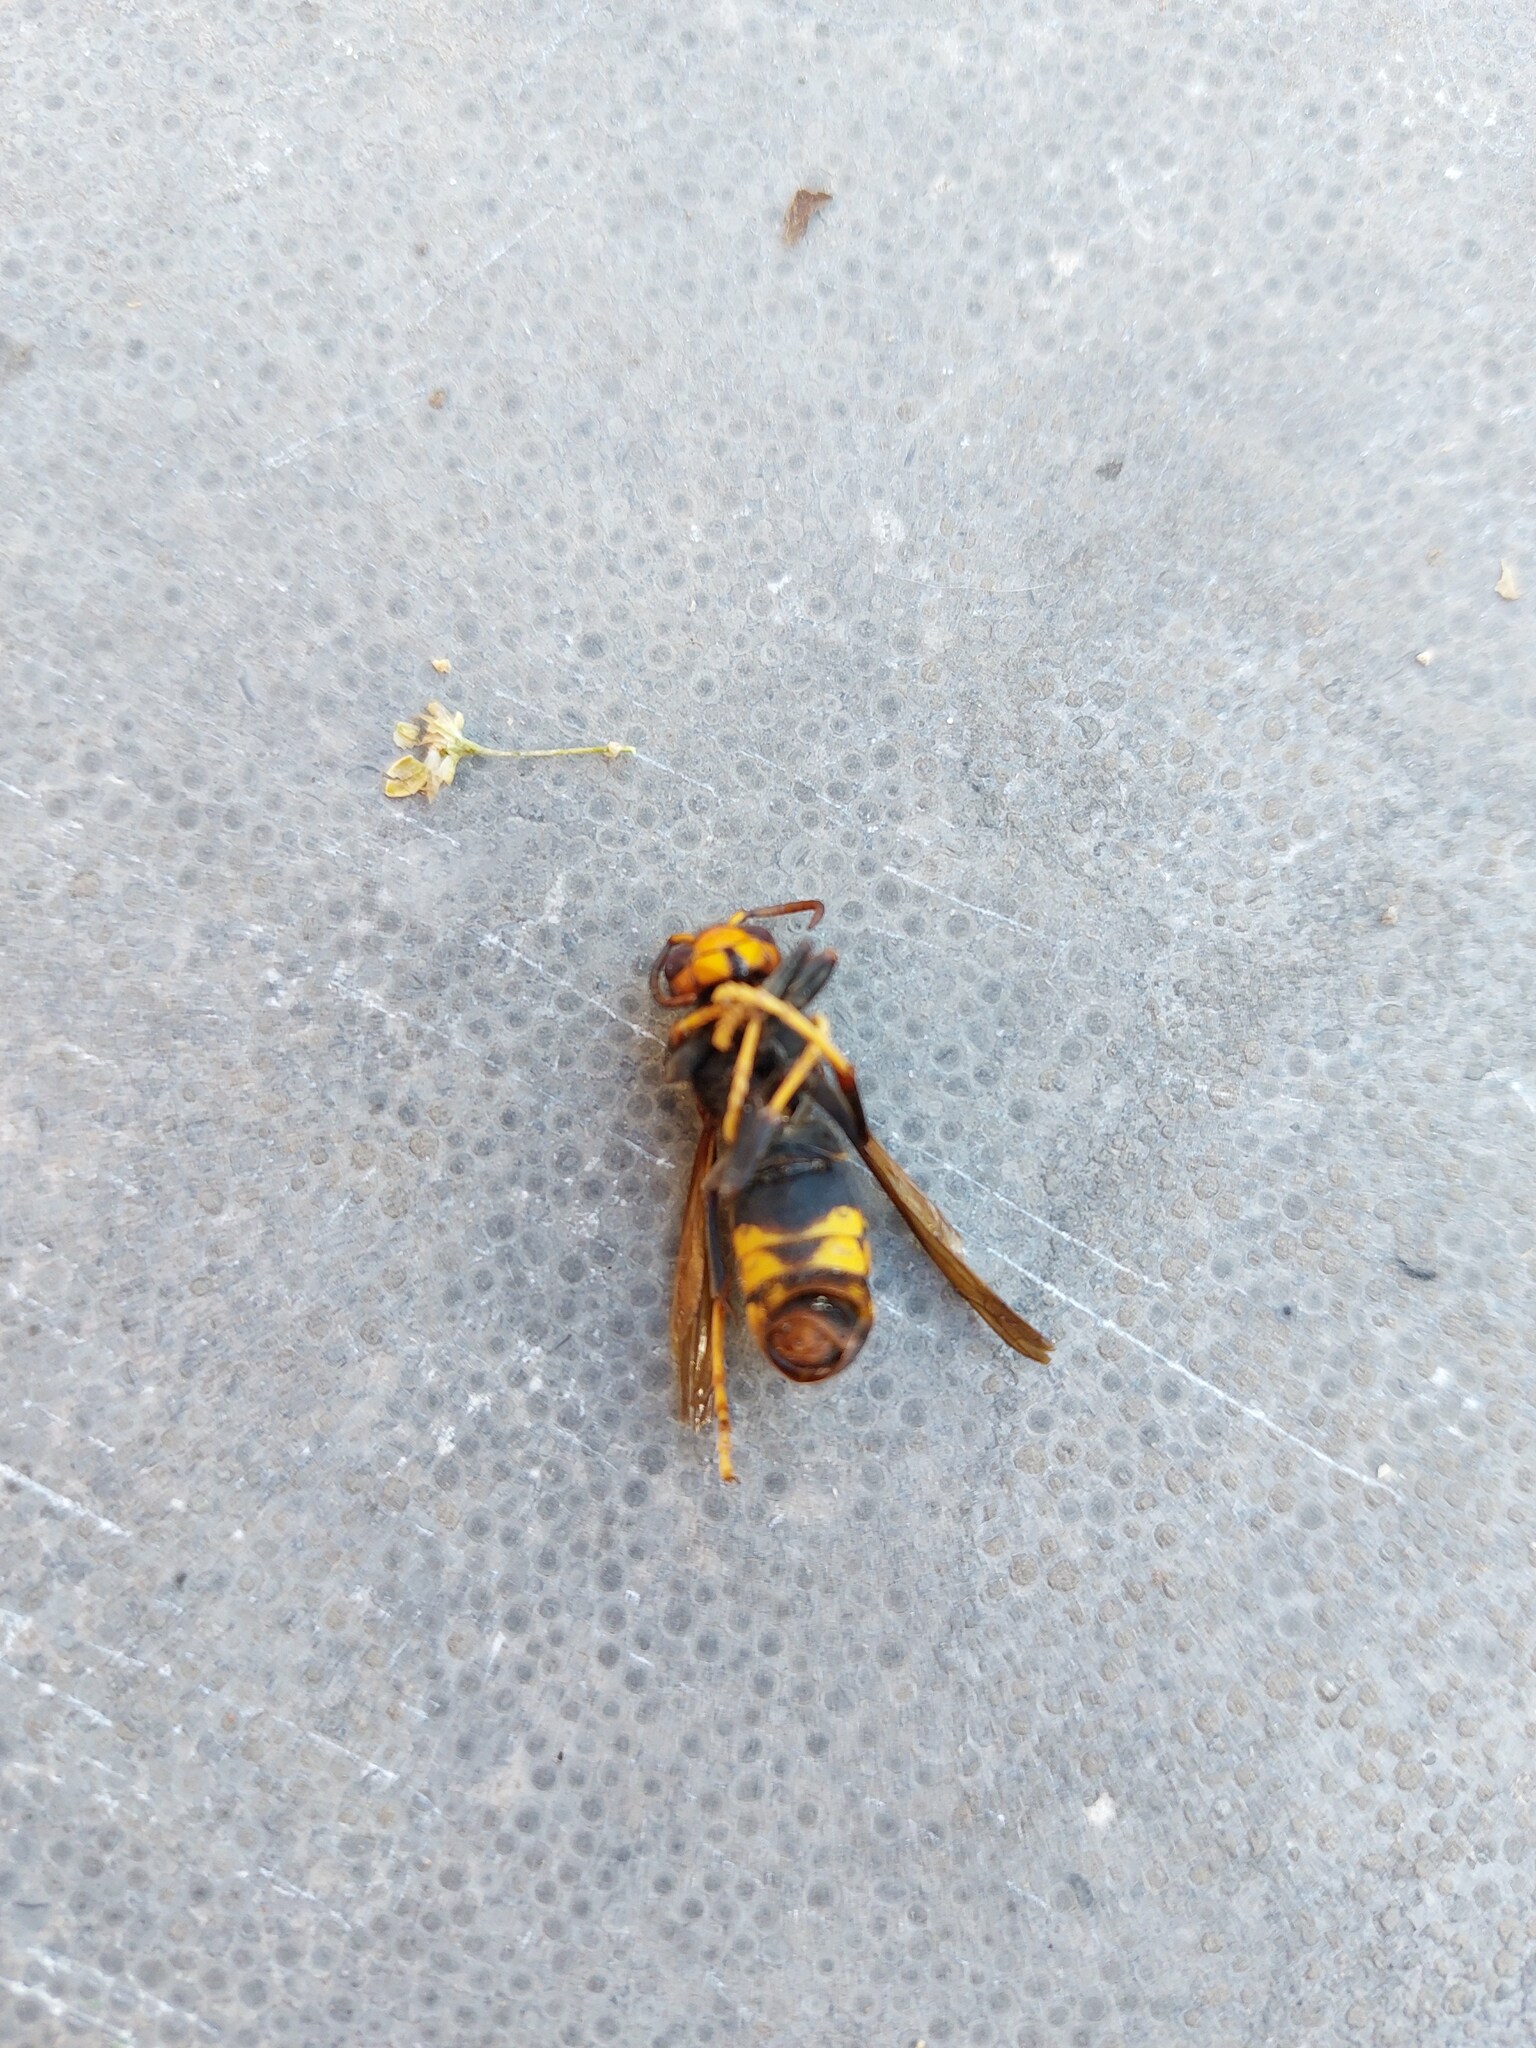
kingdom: Animalia
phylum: Arthropoda
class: Insecta
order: Hymenoptera
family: Vespidae
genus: Vespa
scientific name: Vespa velutina
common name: Asian hornet
